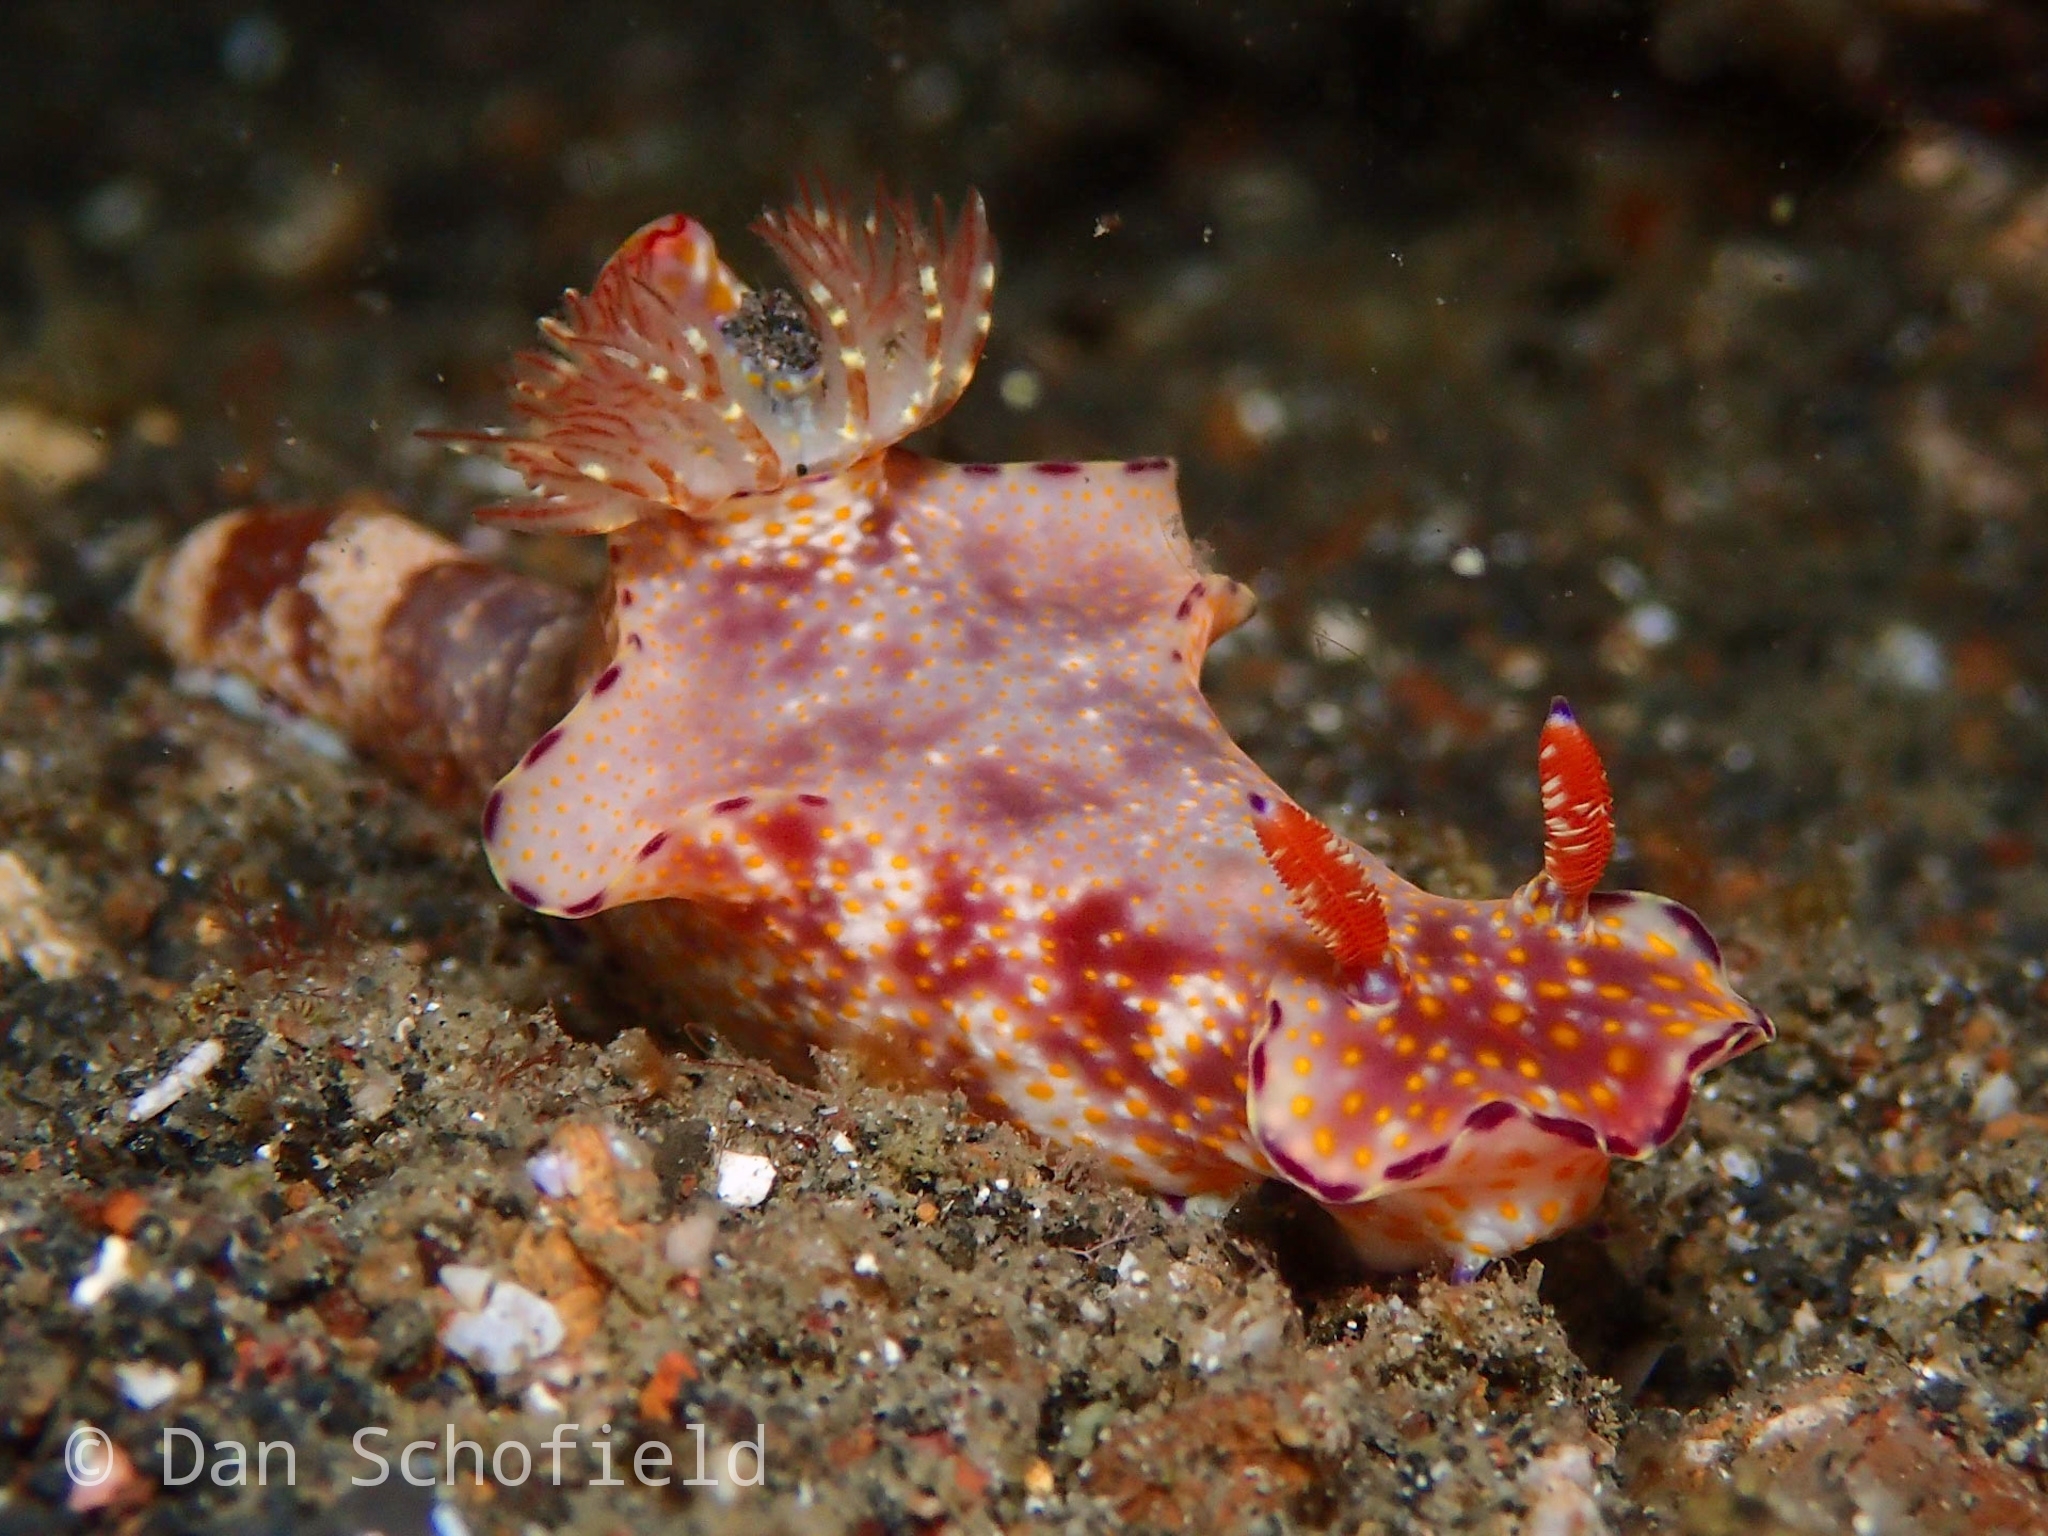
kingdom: Animalia
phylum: Mollusca
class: Gastropoda
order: Nudibranchia
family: Chromodorididae
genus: Ceratosoma
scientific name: Ceratosoma gracillimum
